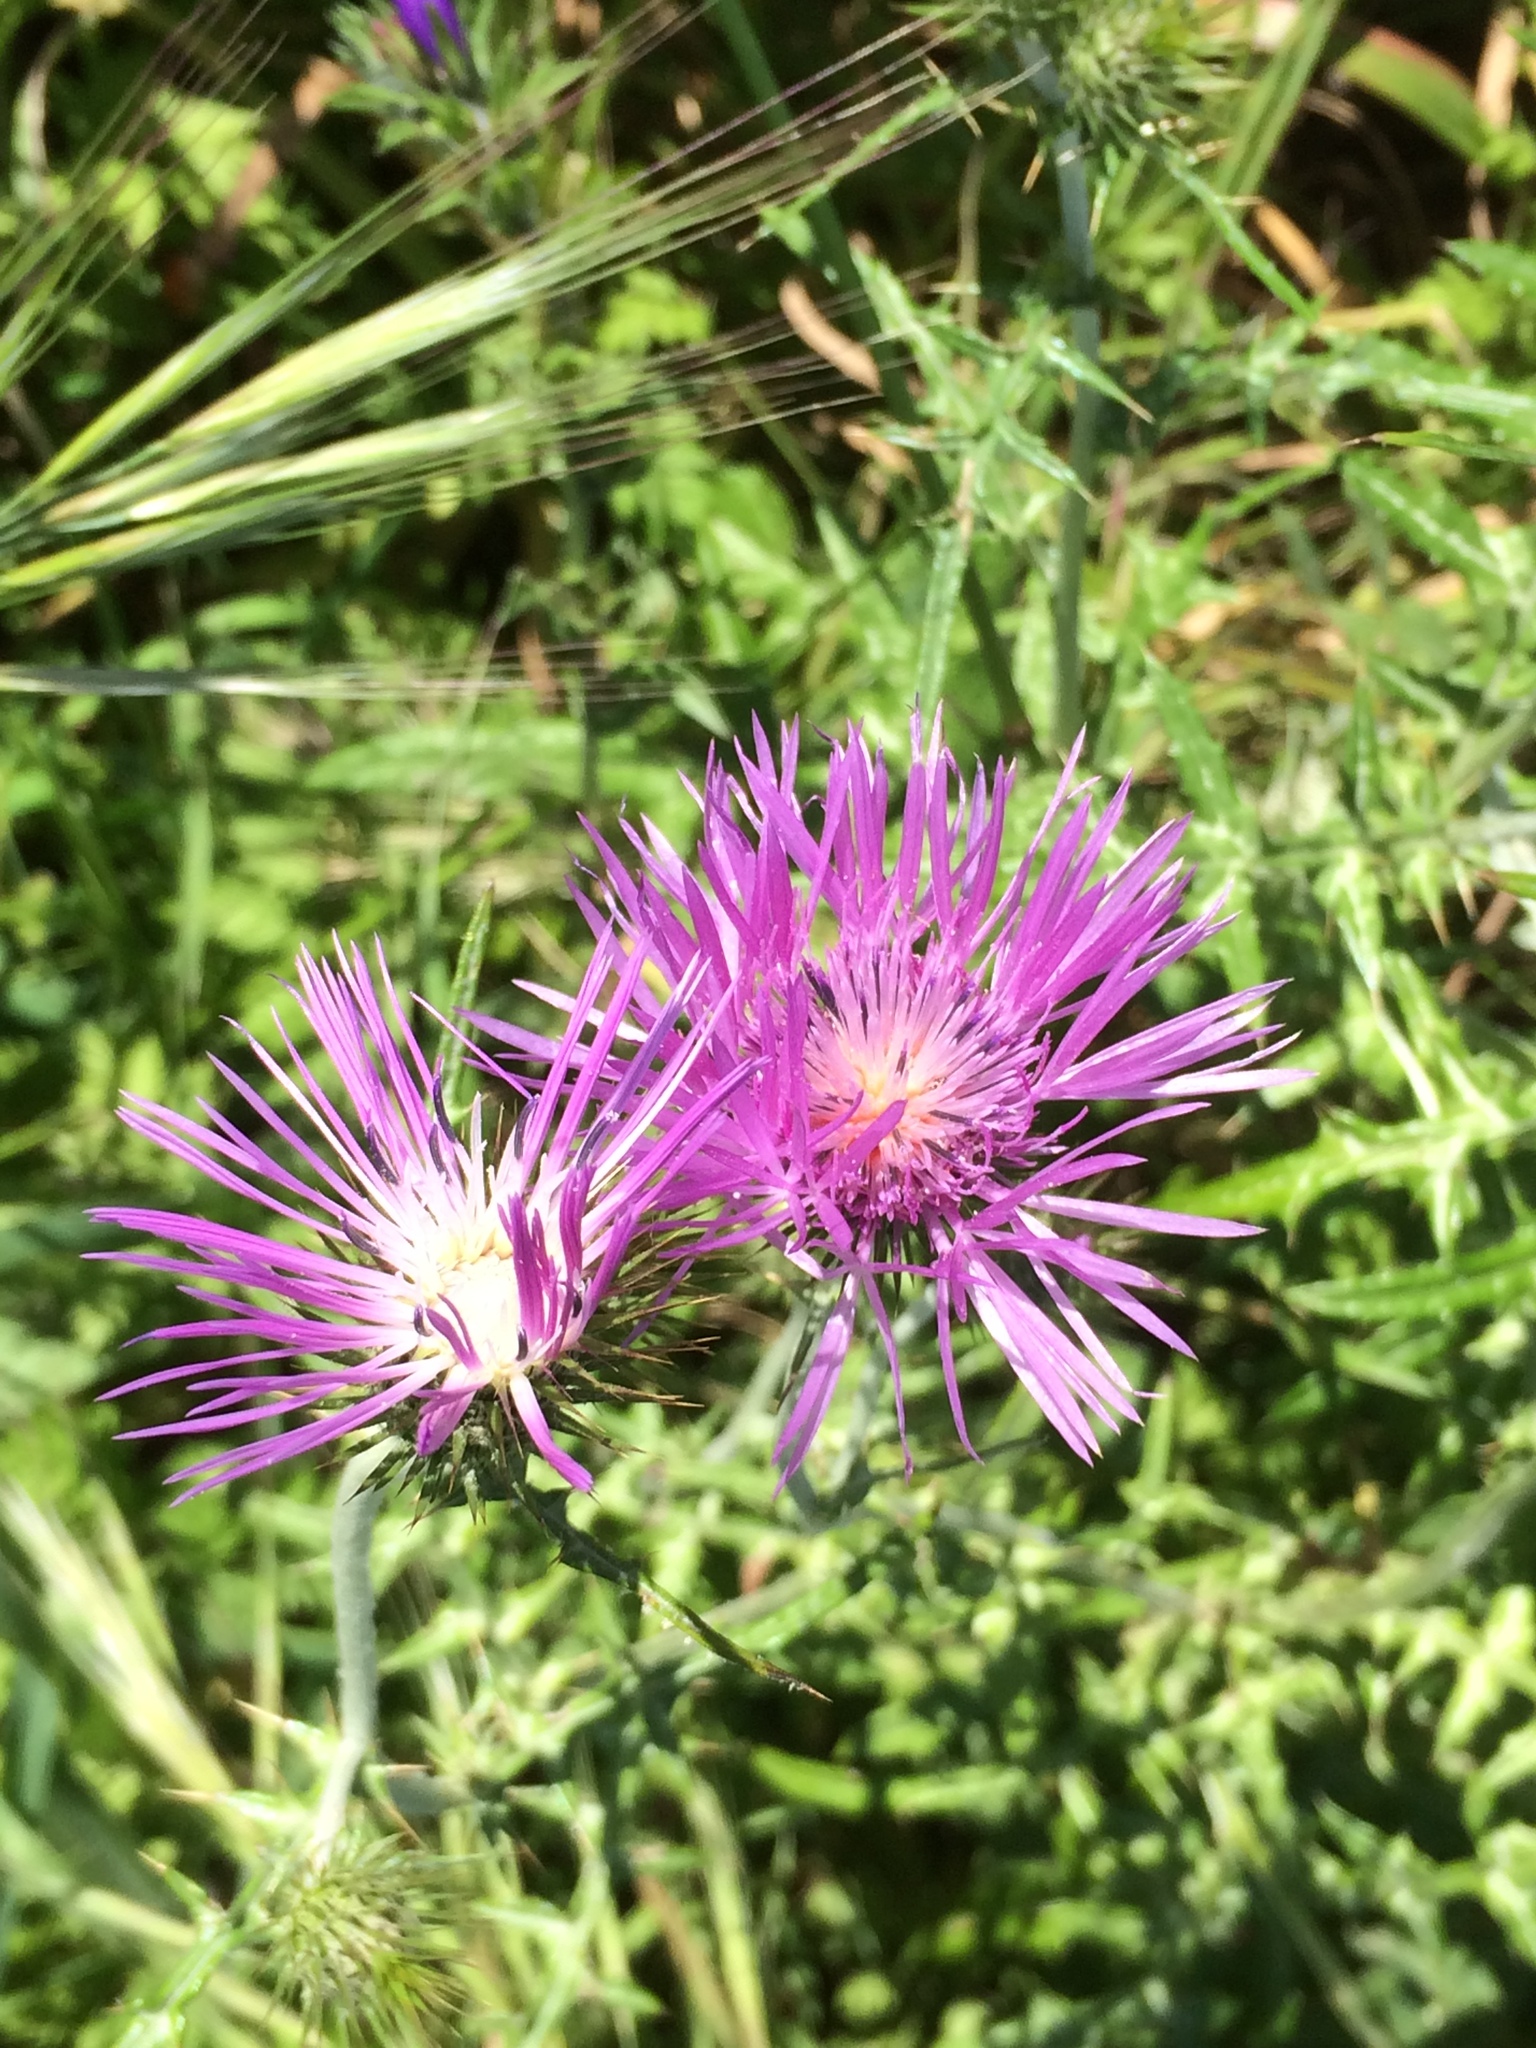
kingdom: Plantae
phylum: Tracheophyta
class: Magnoliopsida
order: Asterales
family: Asteraceae
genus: Galactites
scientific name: Galactites tomentosa
